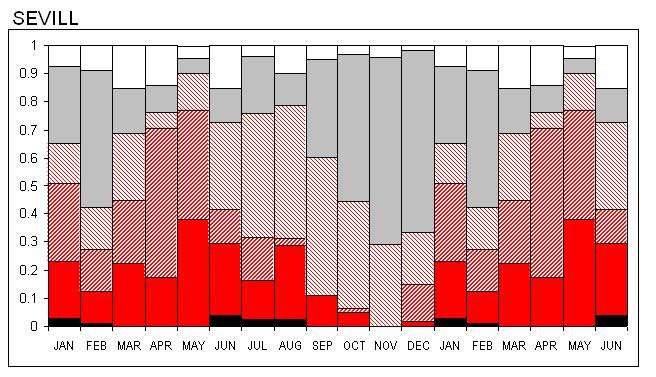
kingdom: Plantae
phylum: Tracheophyta
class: Magnoliopsida
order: Proteales
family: Proteaceae
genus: Serruria
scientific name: Serruria villosa
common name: Golden spiderhead
